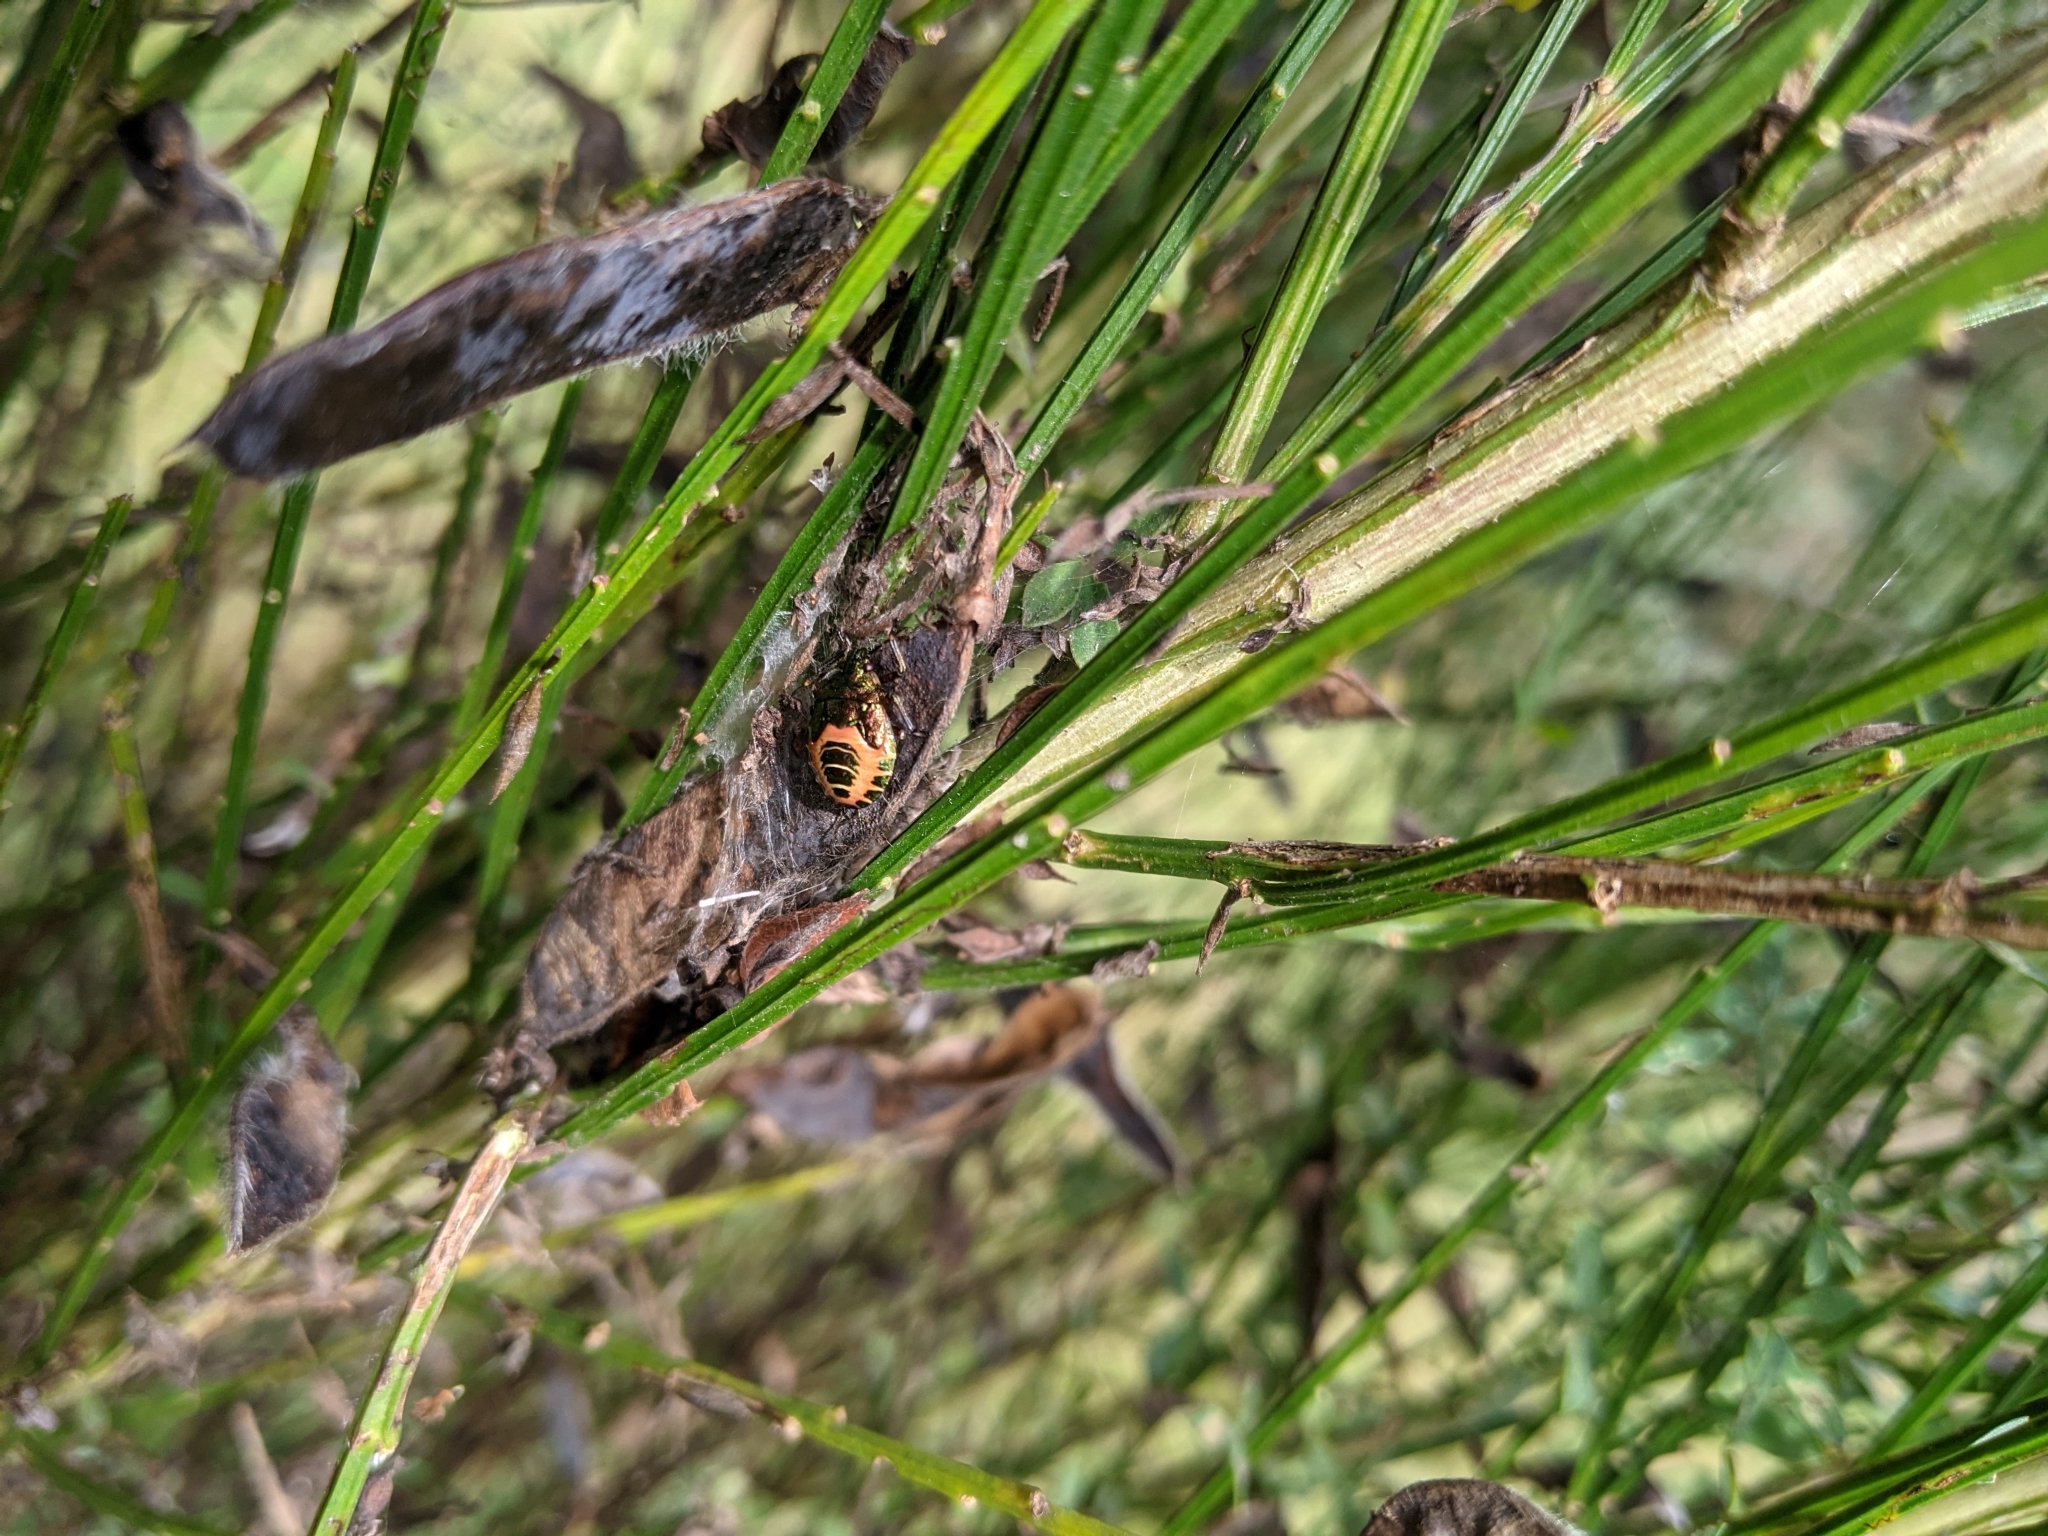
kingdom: Animalia
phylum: Arthropoda
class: Insecta
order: Hemiptera
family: Pentatomidae
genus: Troilus
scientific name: Troilus luridus
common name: Bronze shieldbug
